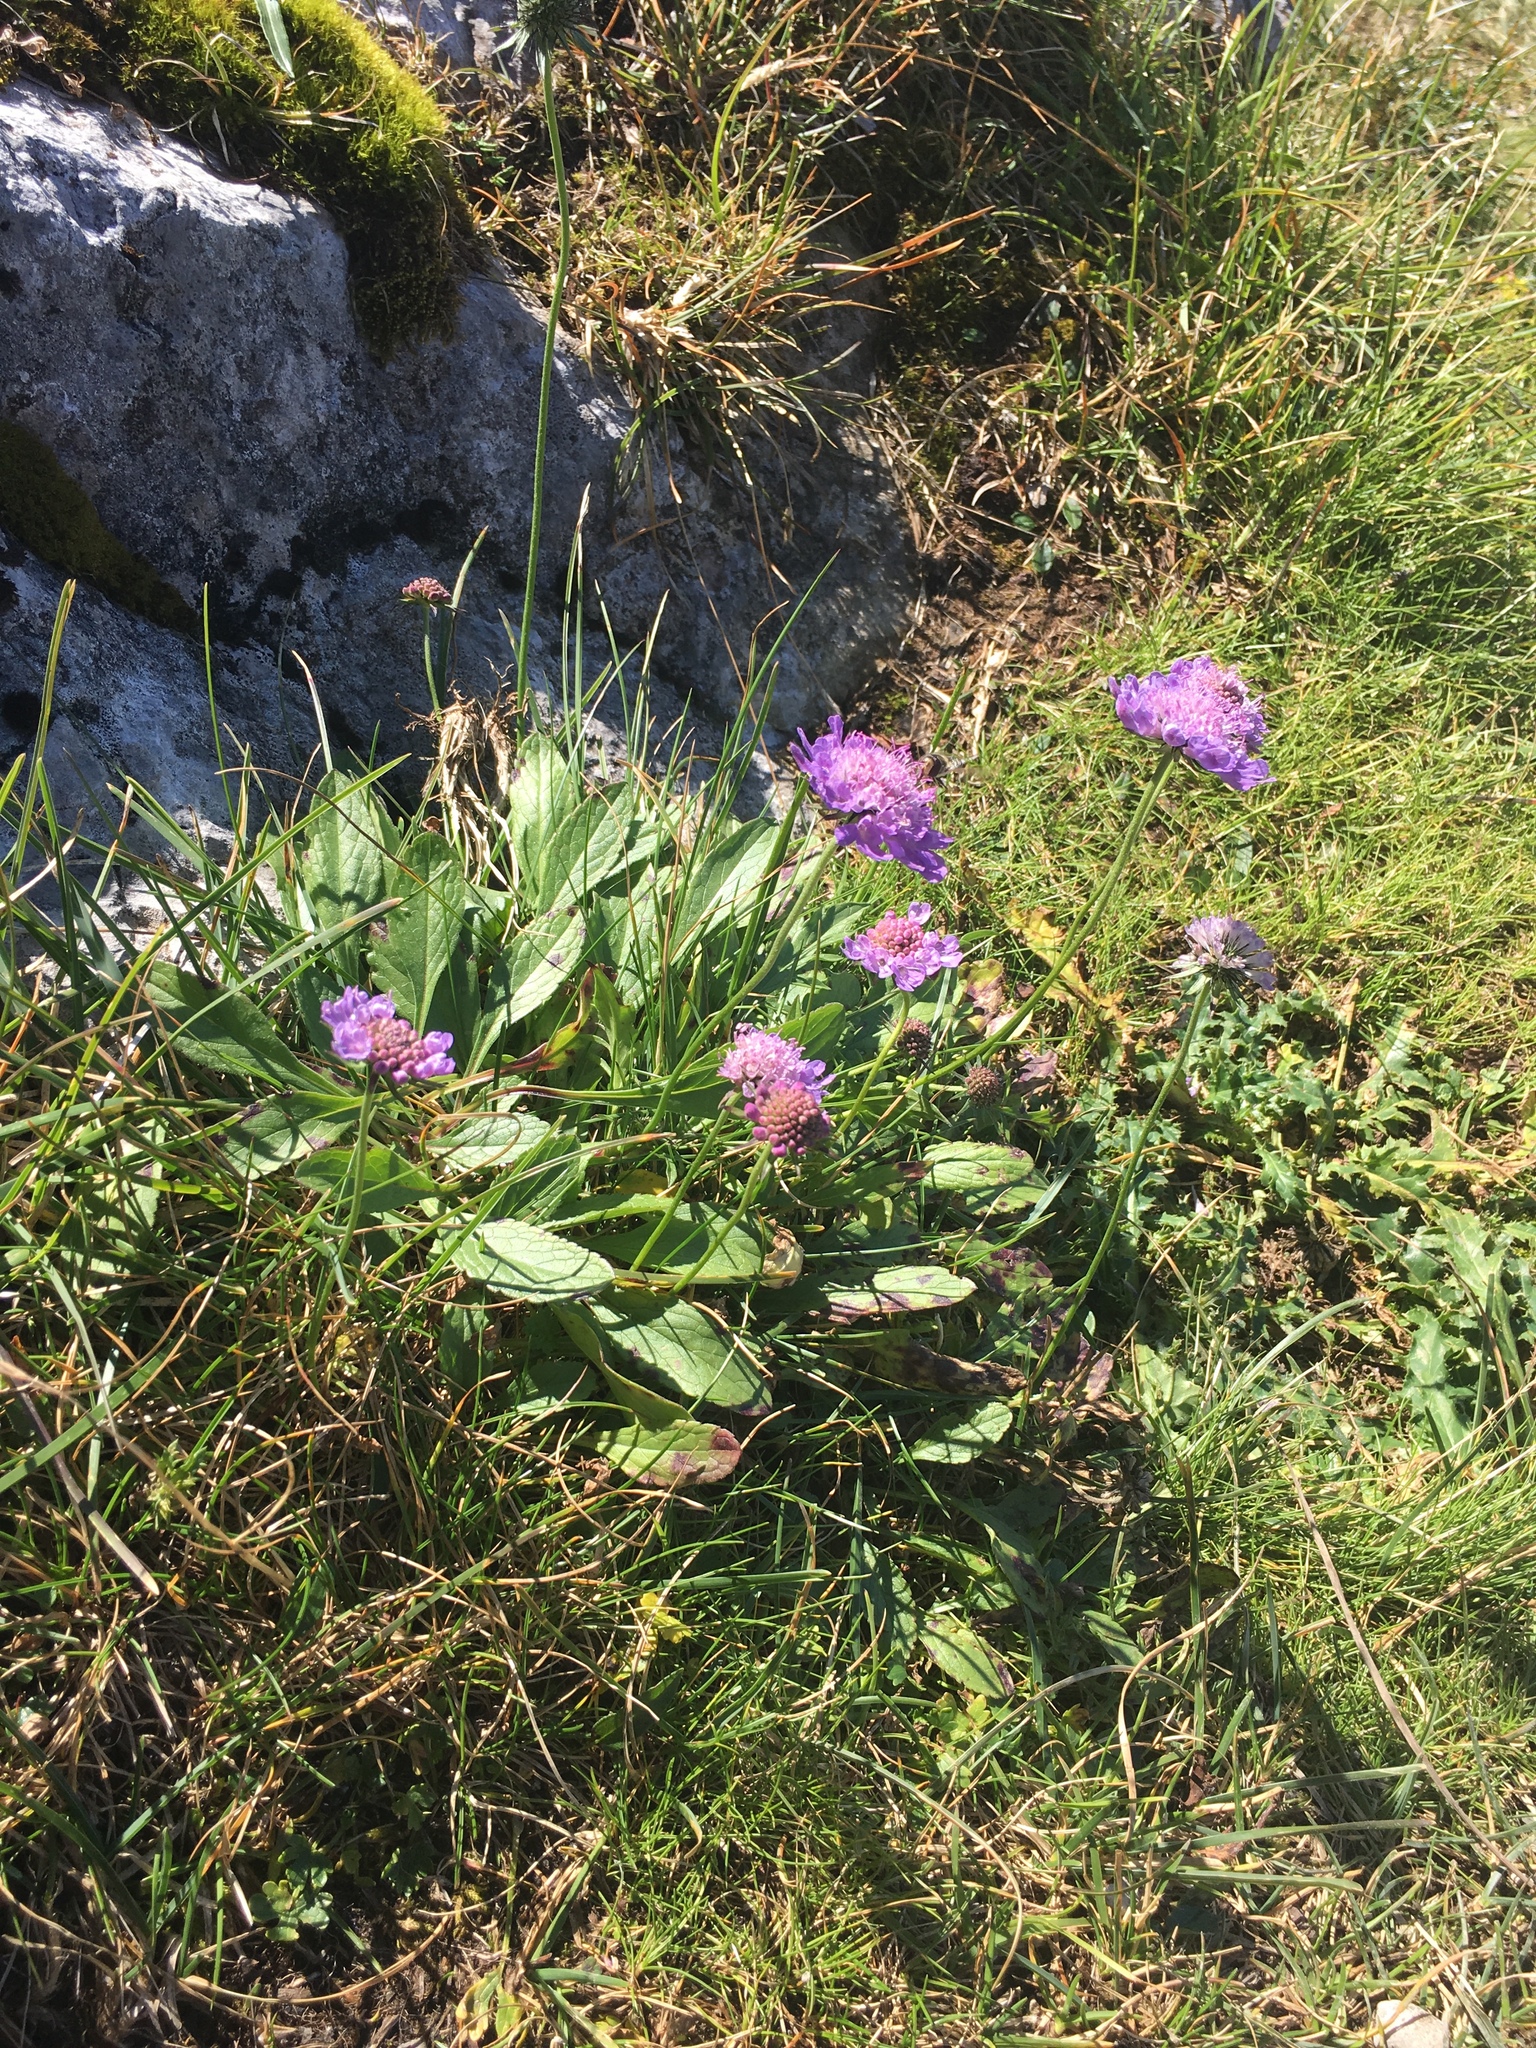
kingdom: Plantae
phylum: Tracheophyta
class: Magnoliopsida
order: Dipsacales
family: Caprifoliaceae
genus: Scabiosa
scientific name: Scabiosa lucida
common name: Shining scabious
